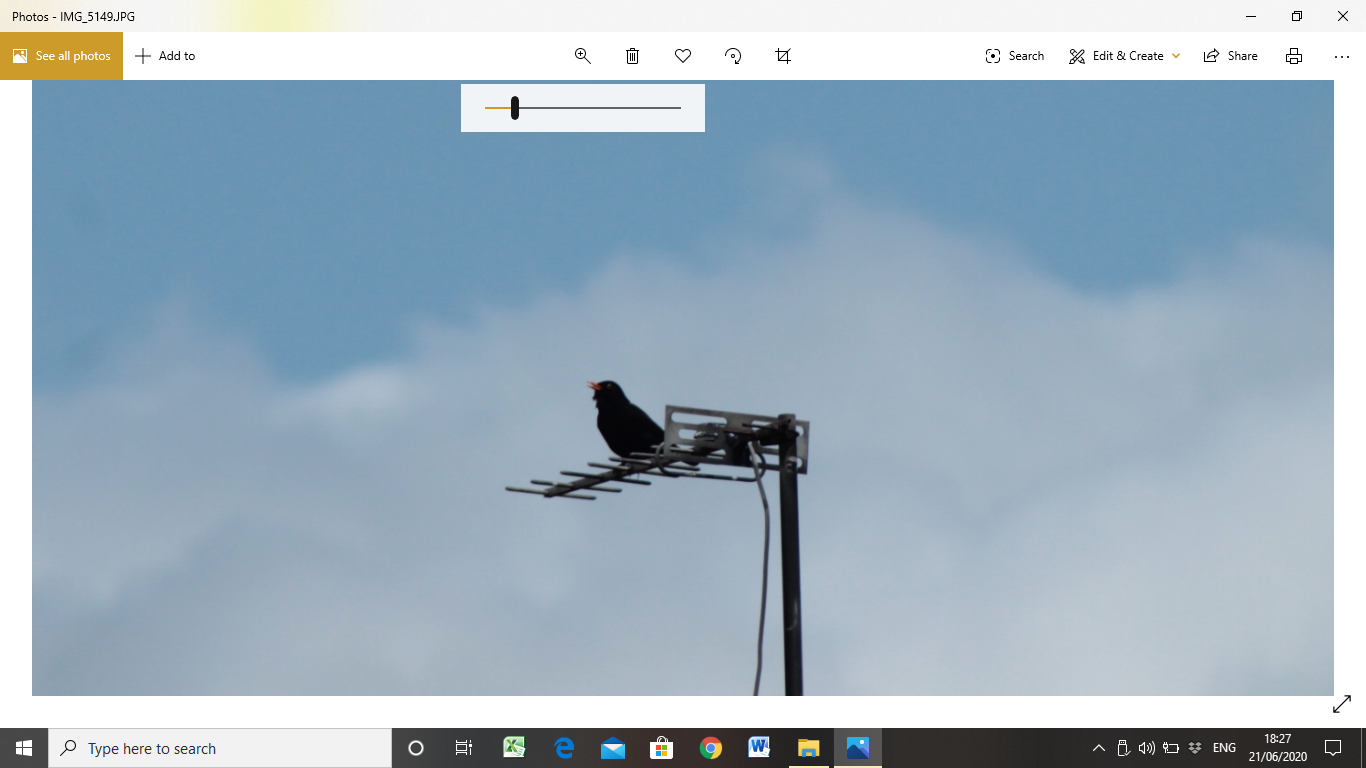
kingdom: Animalia
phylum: Chordata
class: Aves
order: Passeriformes
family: Turdidae
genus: Turdus
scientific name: Turdus merula
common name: Common blackbird
